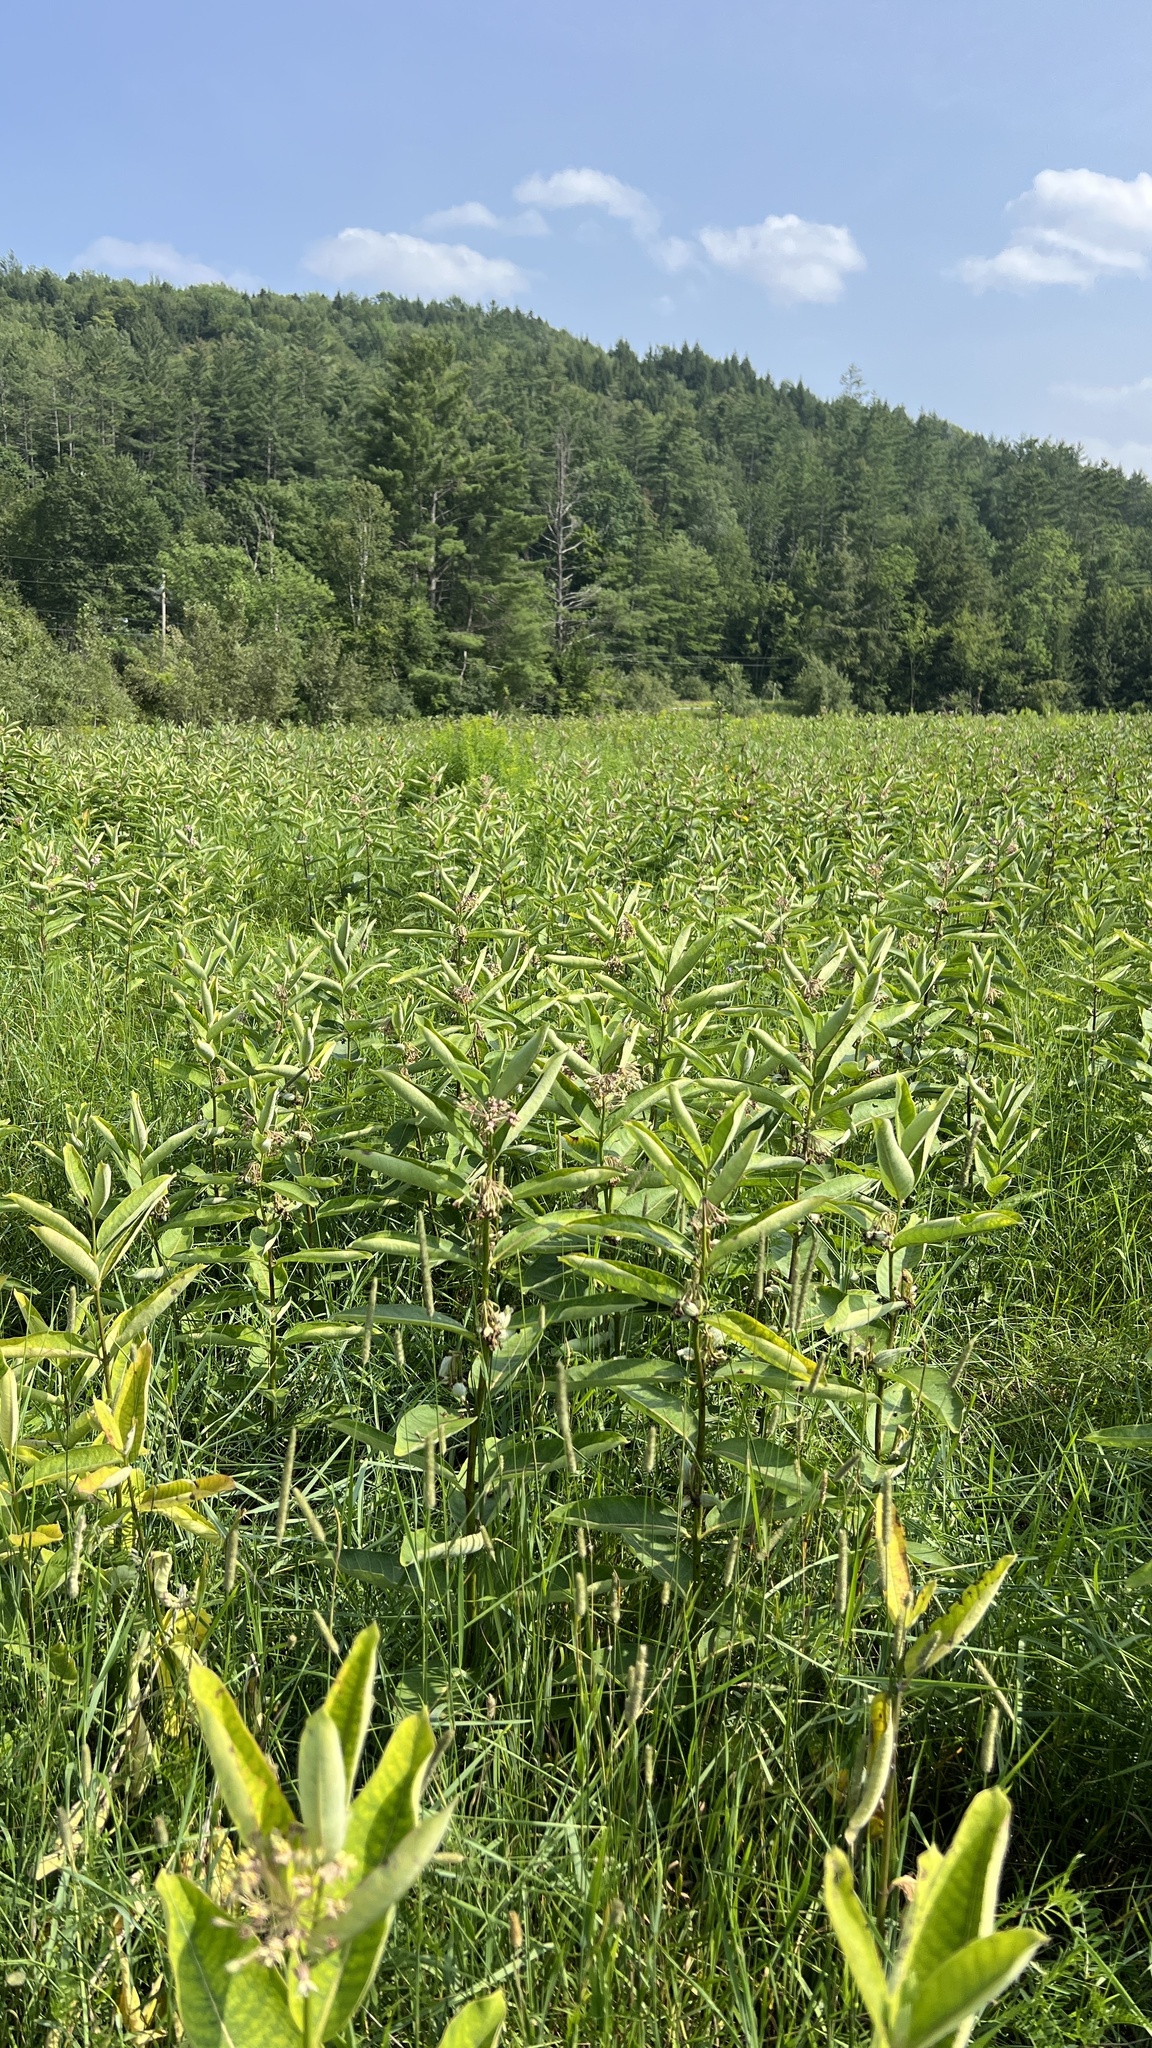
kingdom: Plantae
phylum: Tracheophyta
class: Magnoliopsida
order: Gentianales
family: Apocynaceae
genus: Asclepias
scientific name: Asclepias syriaca
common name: Common milkweed
